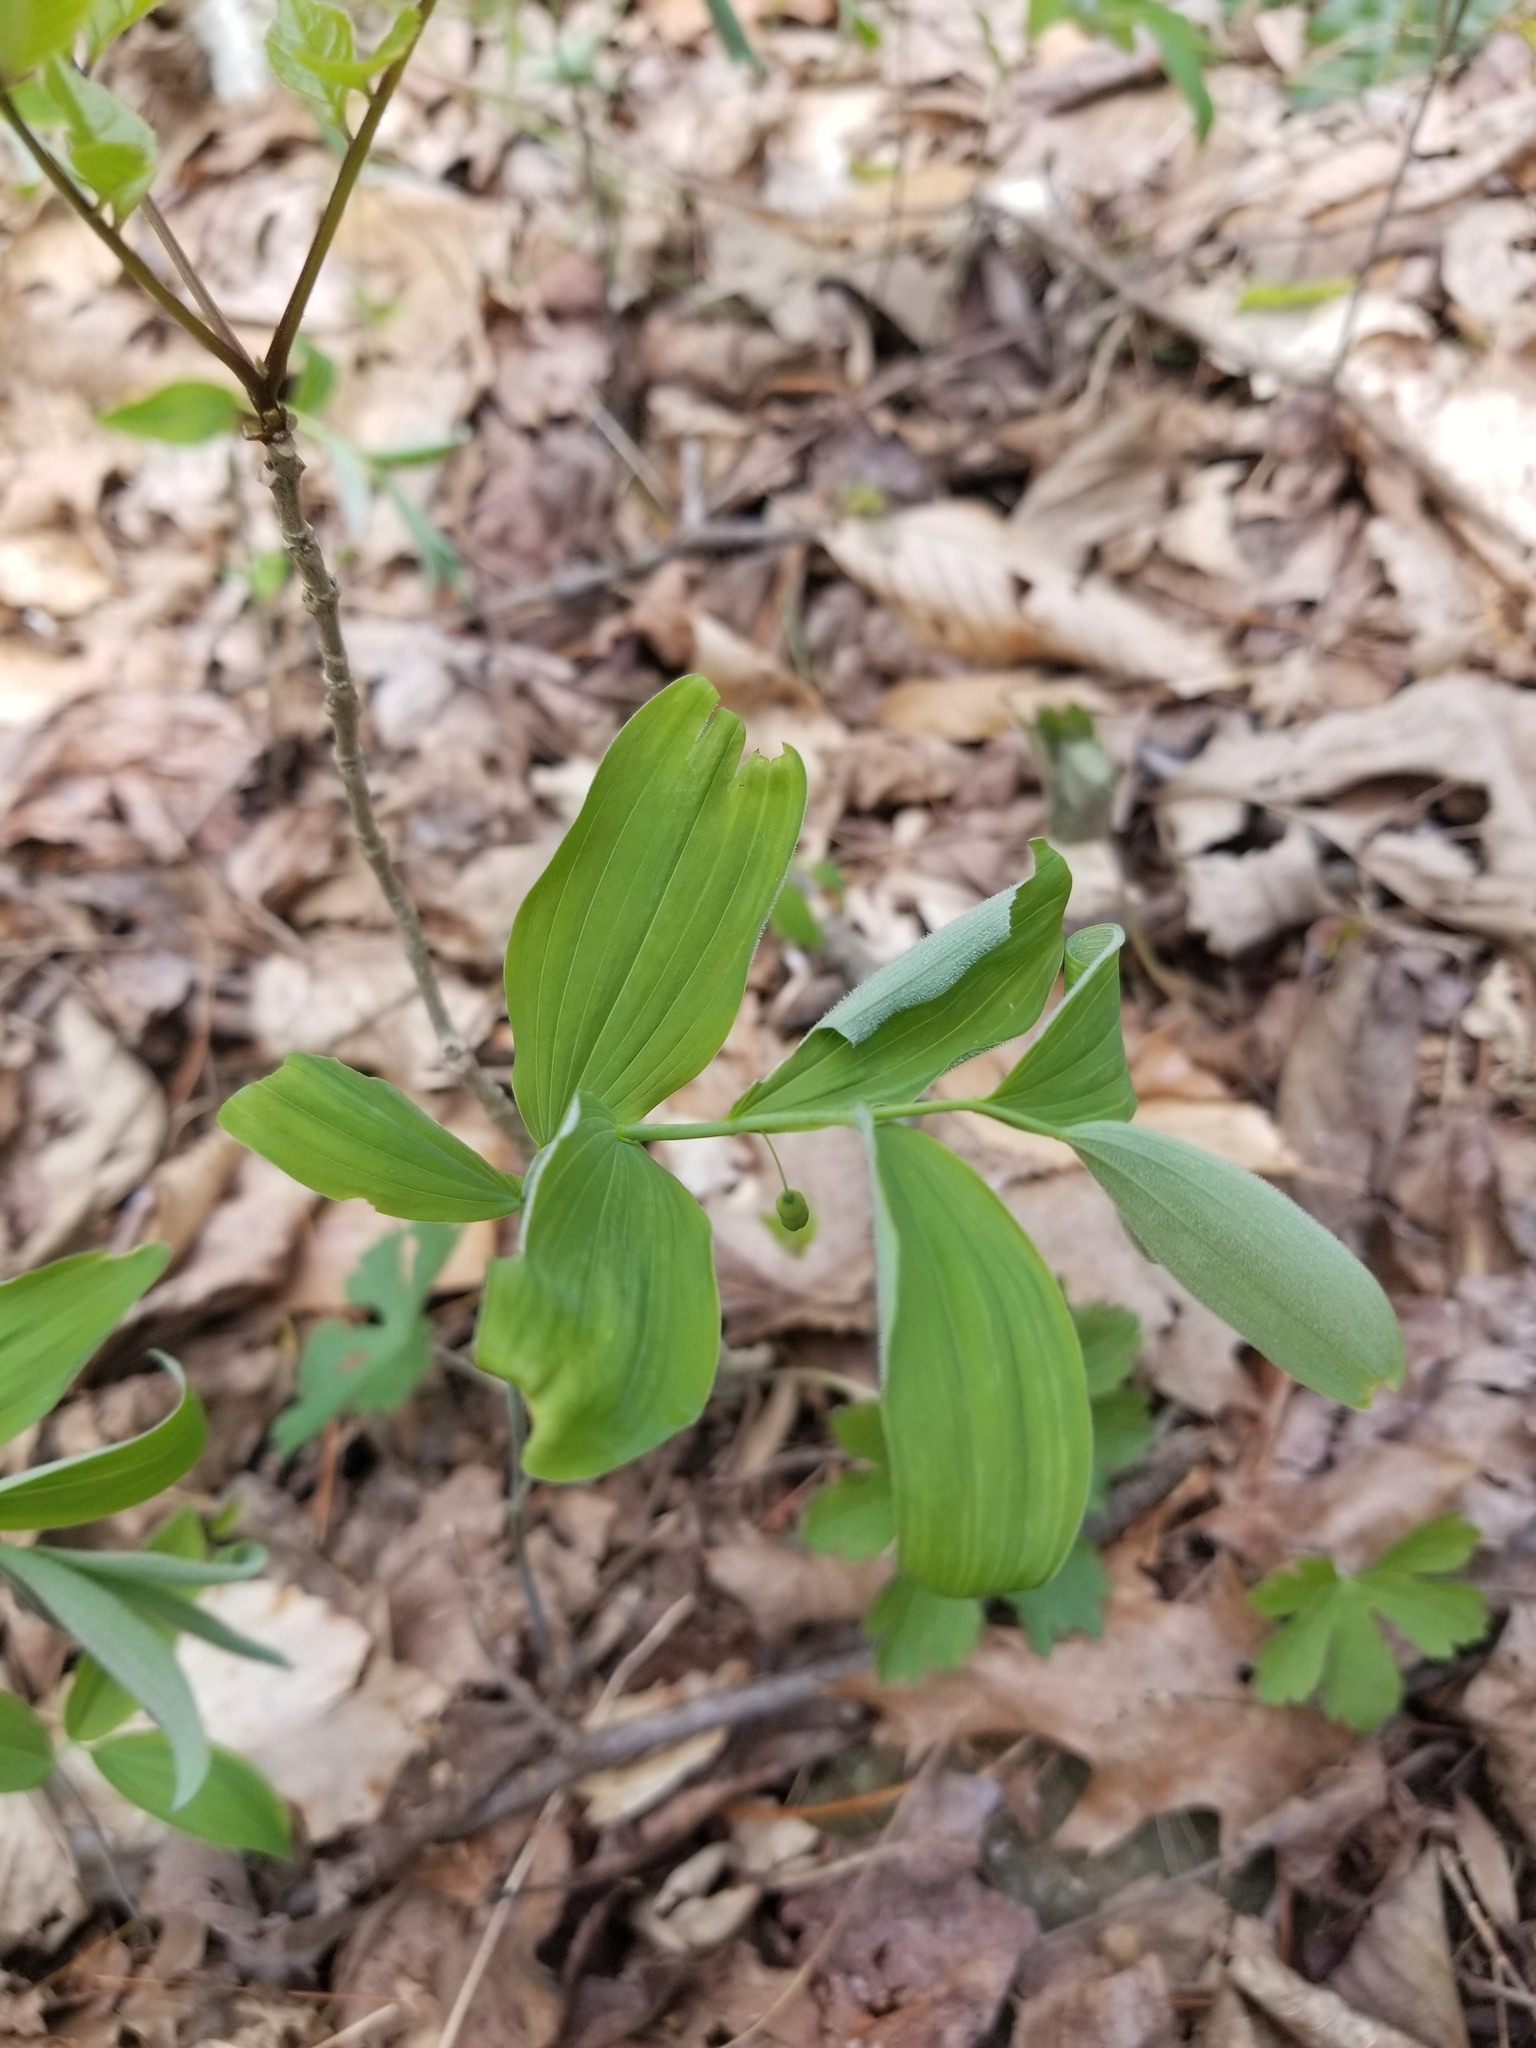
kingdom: Plantae
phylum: Tracheophyta
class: Liliopsida
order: Asparagales
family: Asparagaceae
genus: Polygonatum
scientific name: Polygonatum pubescens
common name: Downy solomon's seal
